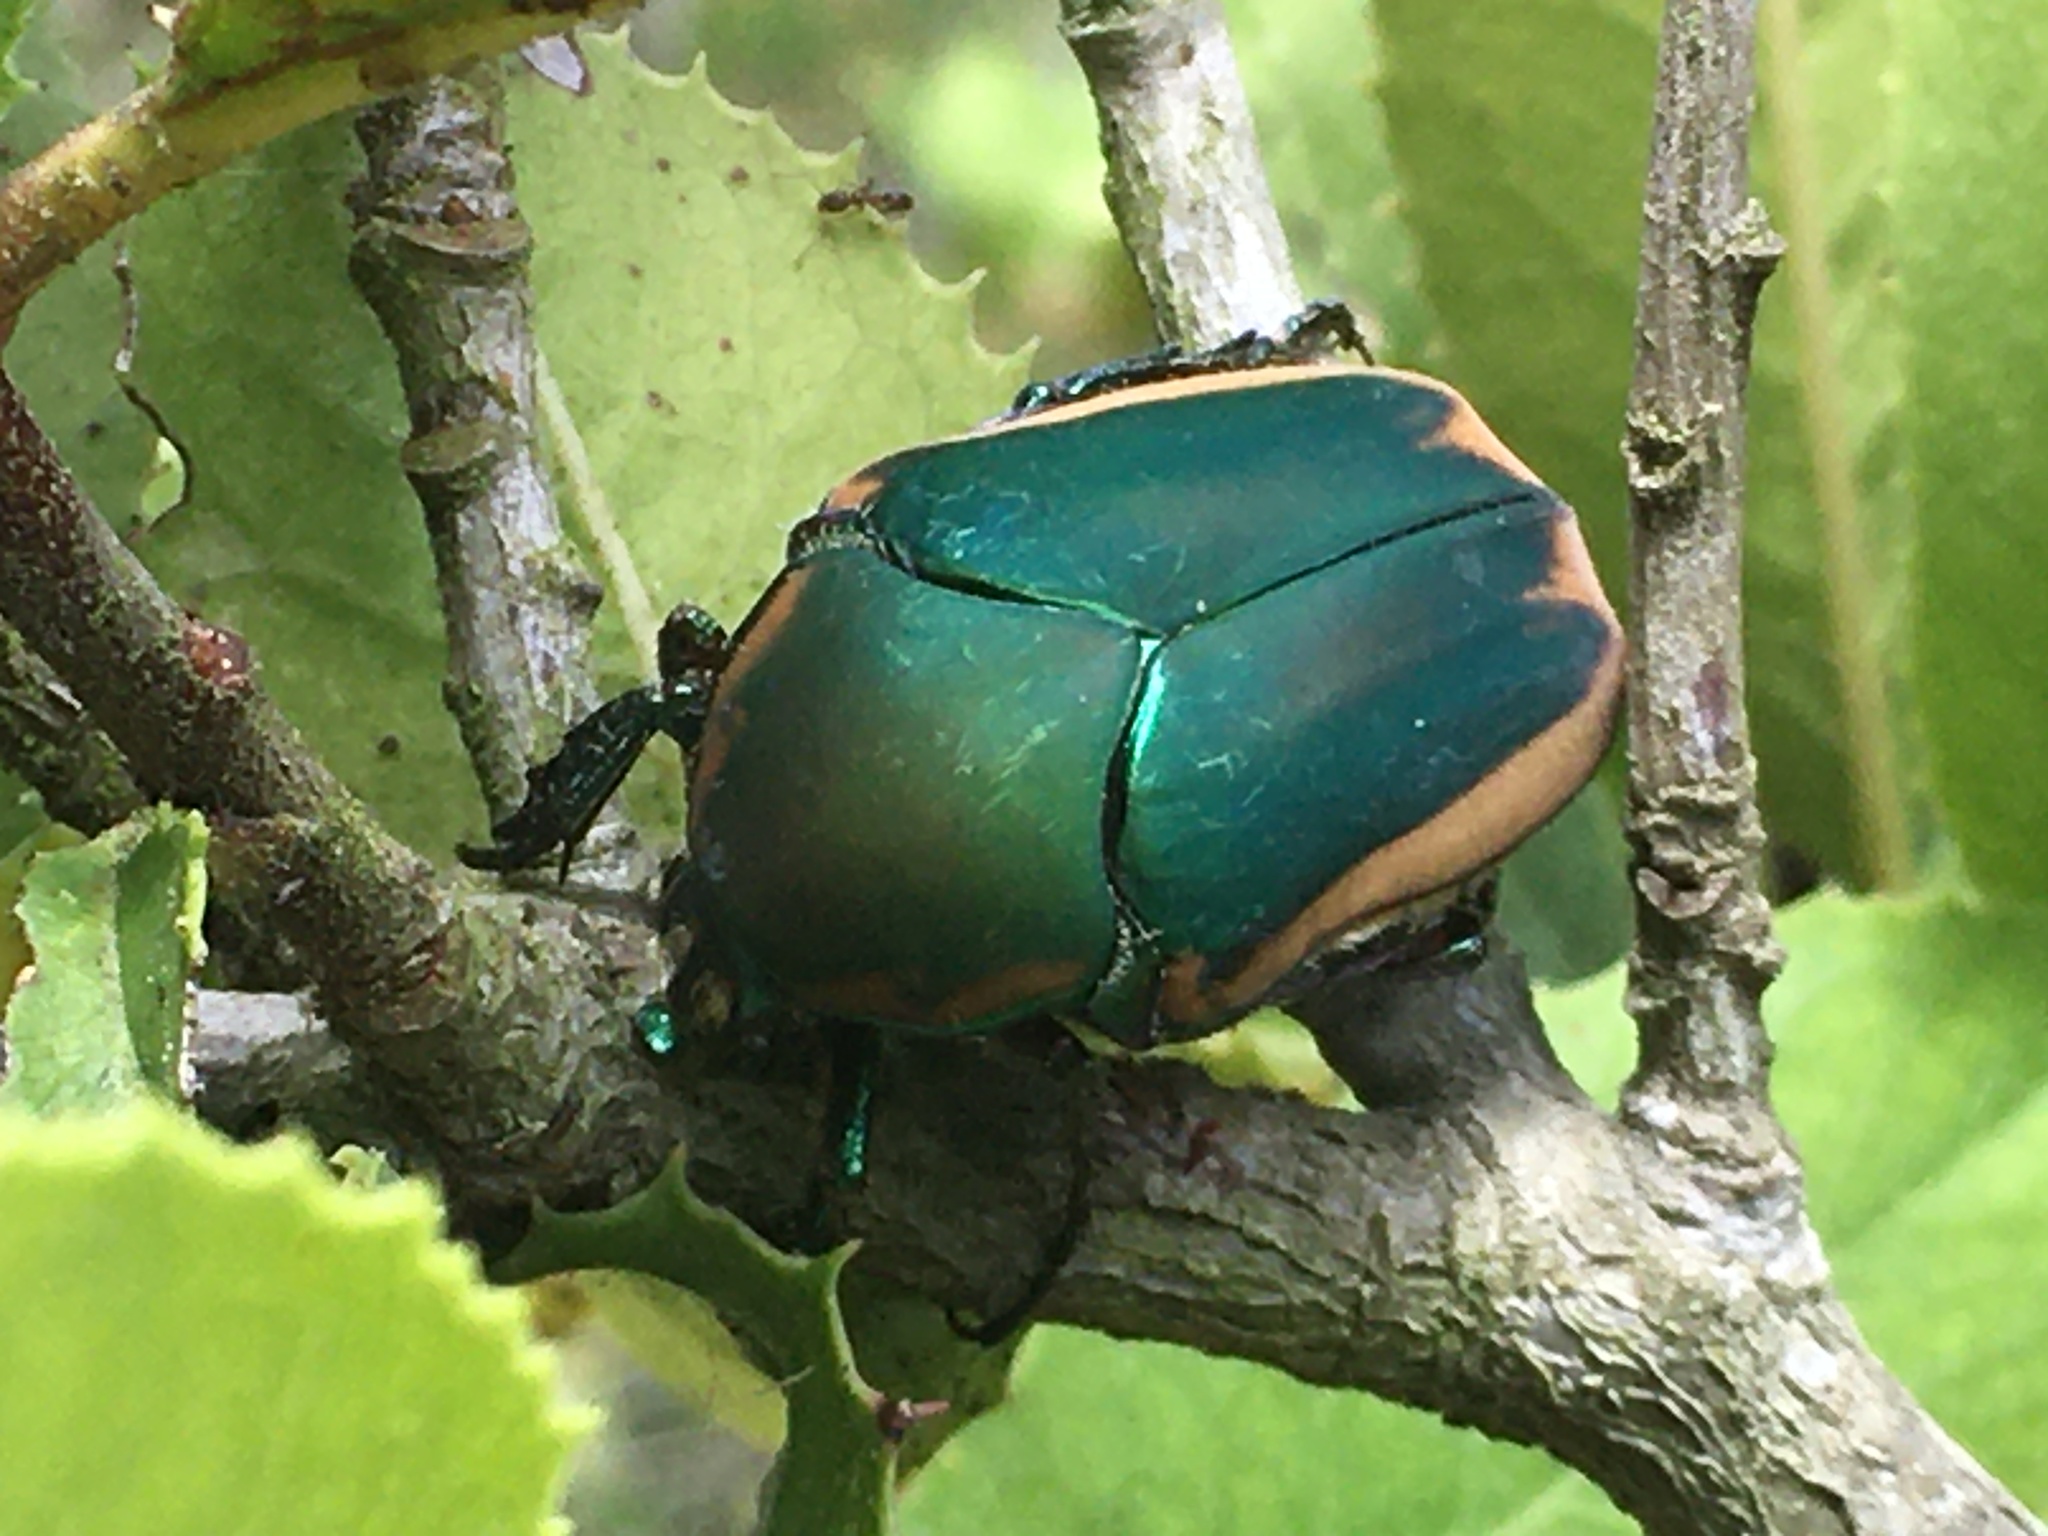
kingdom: Animalia
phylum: Arthropoda
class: Insecta
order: Coleoptera
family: Scarabaeidae
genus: Cotinis
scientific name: Cotinis mutabilis
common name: Figeater beetle
